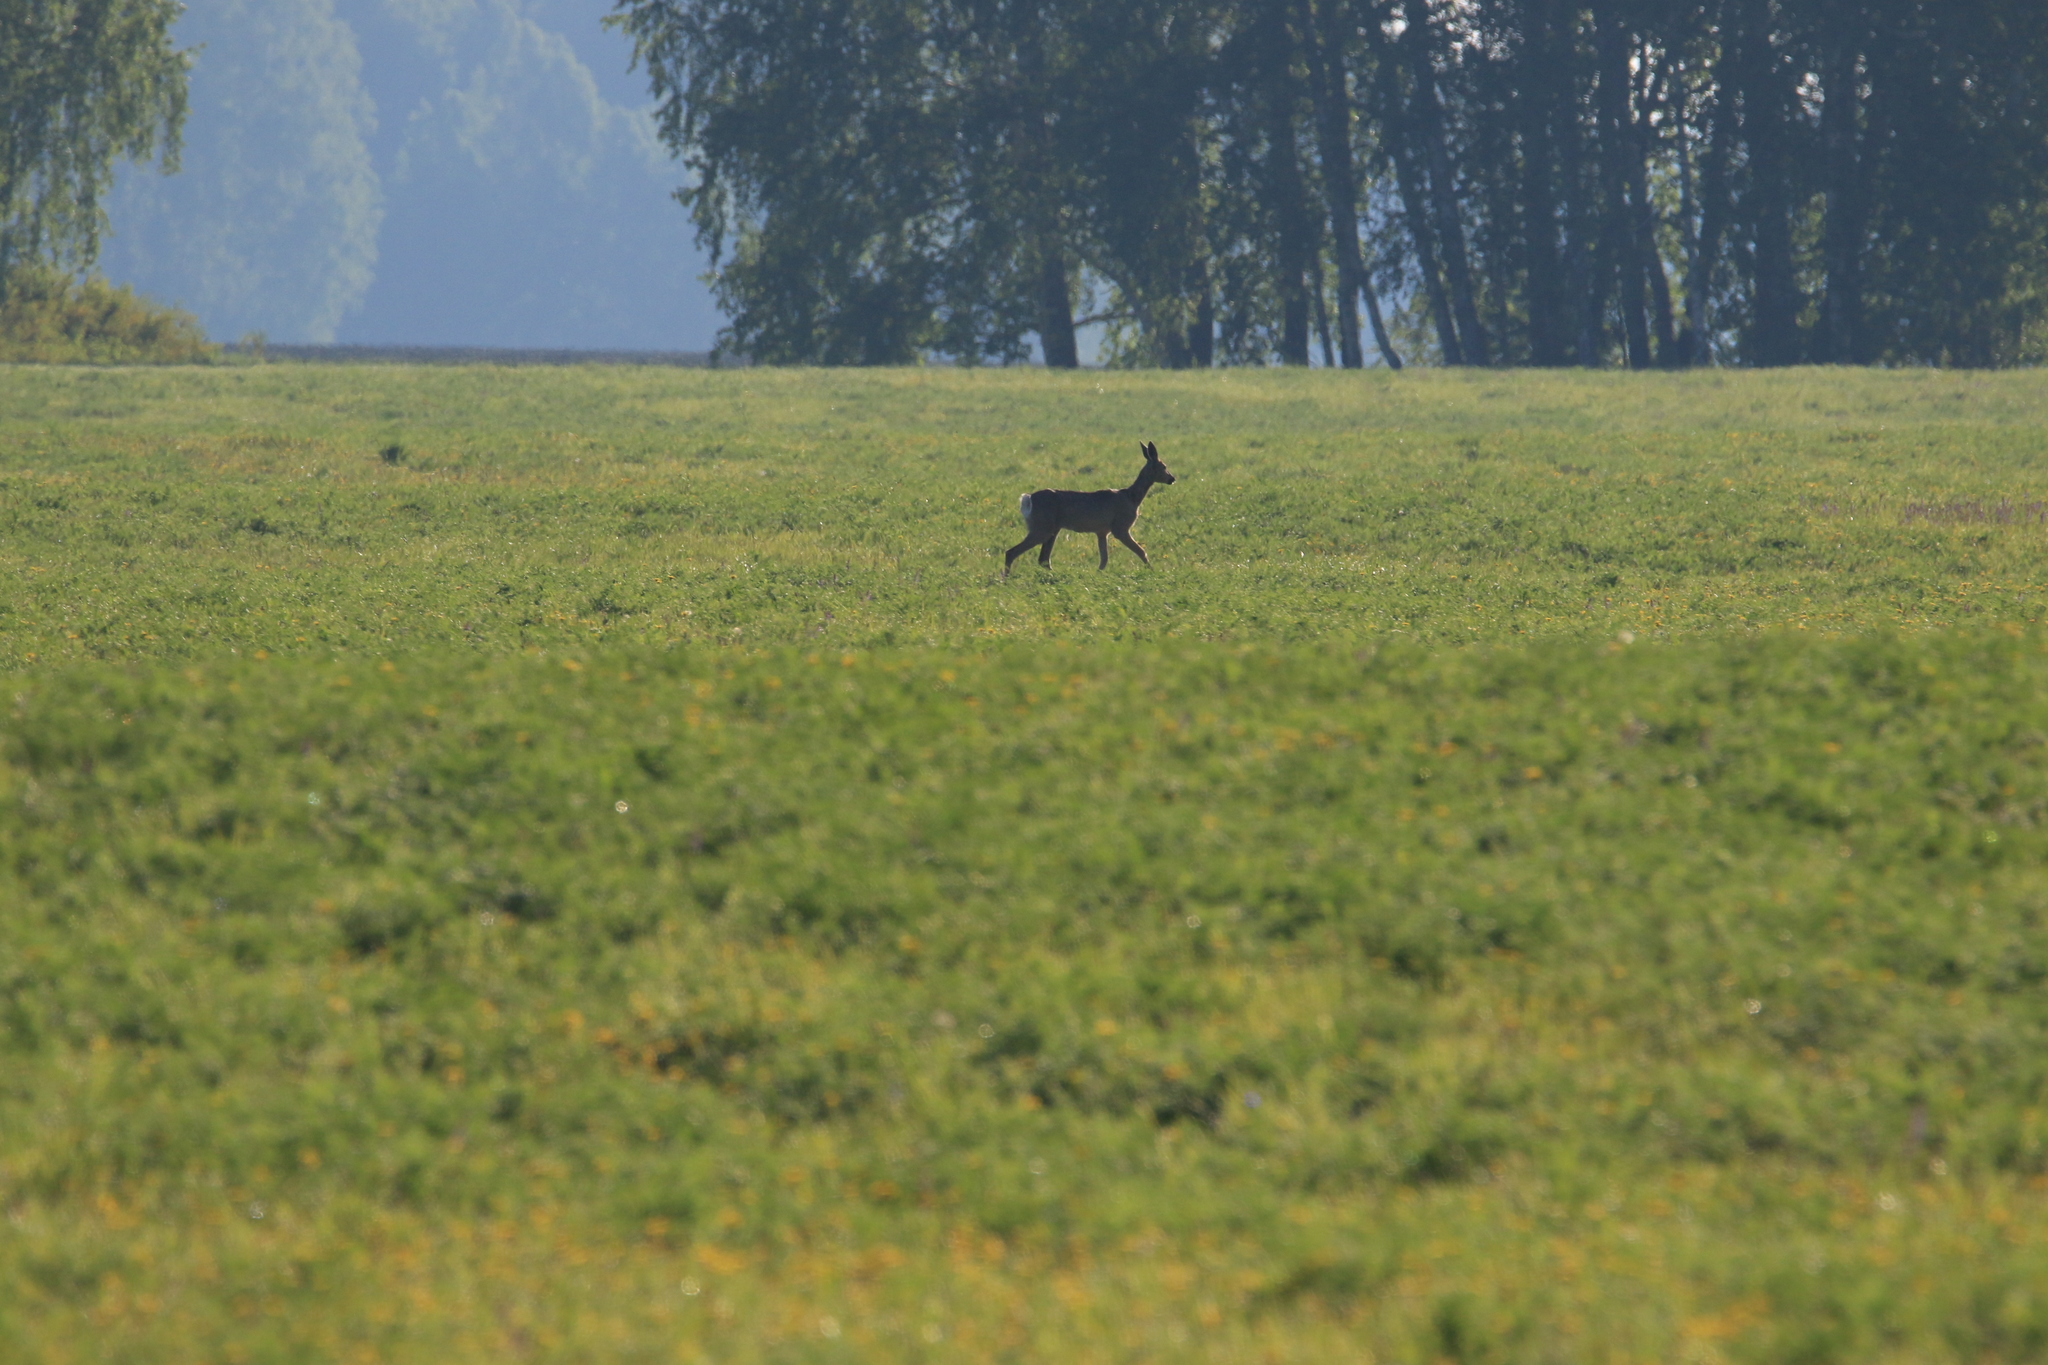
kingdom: Animalia
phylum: Chordata
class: Mammalia
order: Artiodactyla
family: Cervidae
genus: Capreolus
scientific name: Capreolus pygargus
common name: Siberian roe
